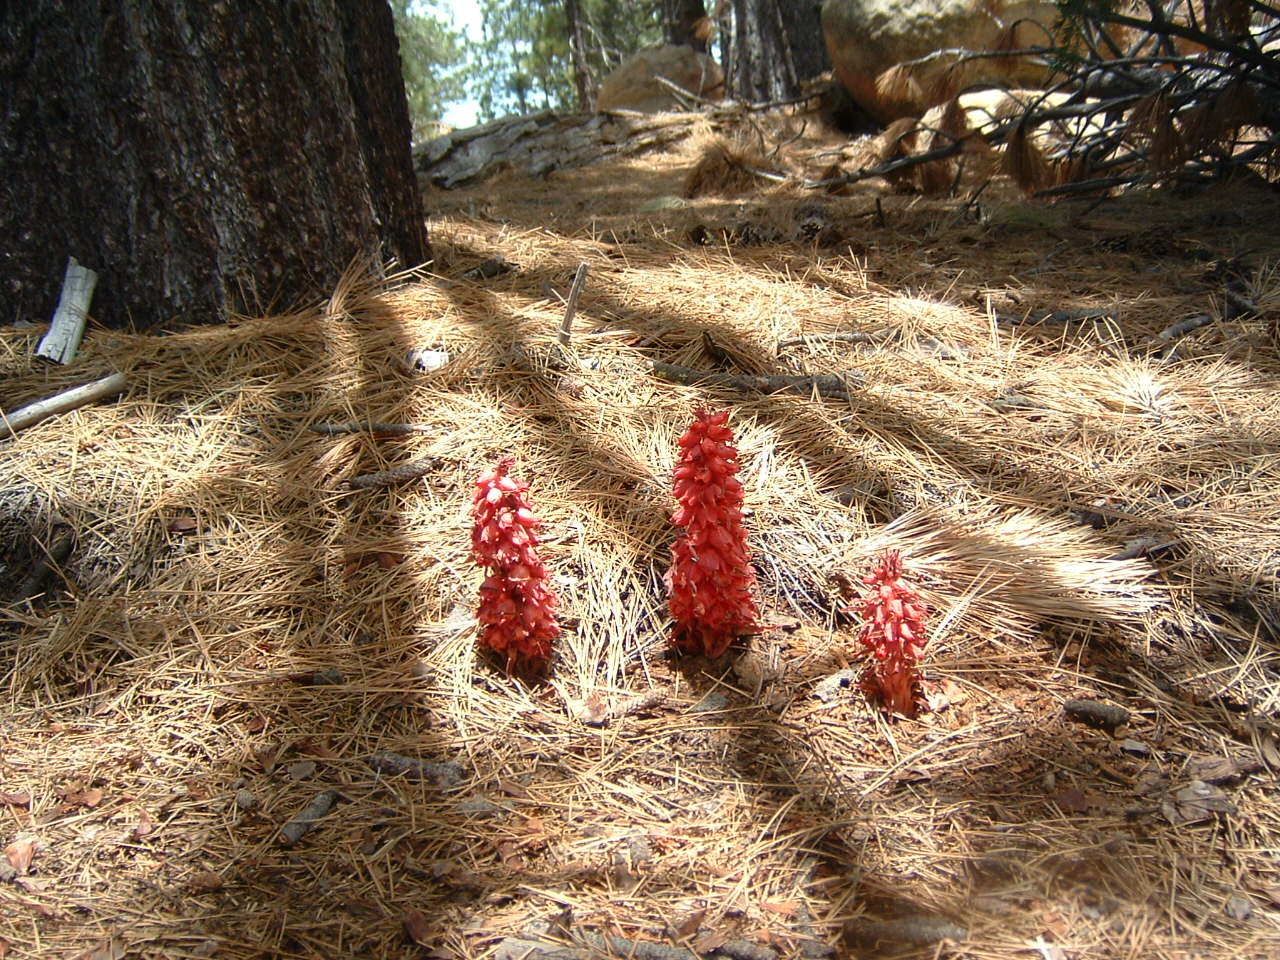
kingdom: Plantae
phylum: Tracheophyta
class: Magnoliopsida
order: Ericales
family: Ericaceae
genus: Sarcodes
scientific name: Sarcodes sanguinea
